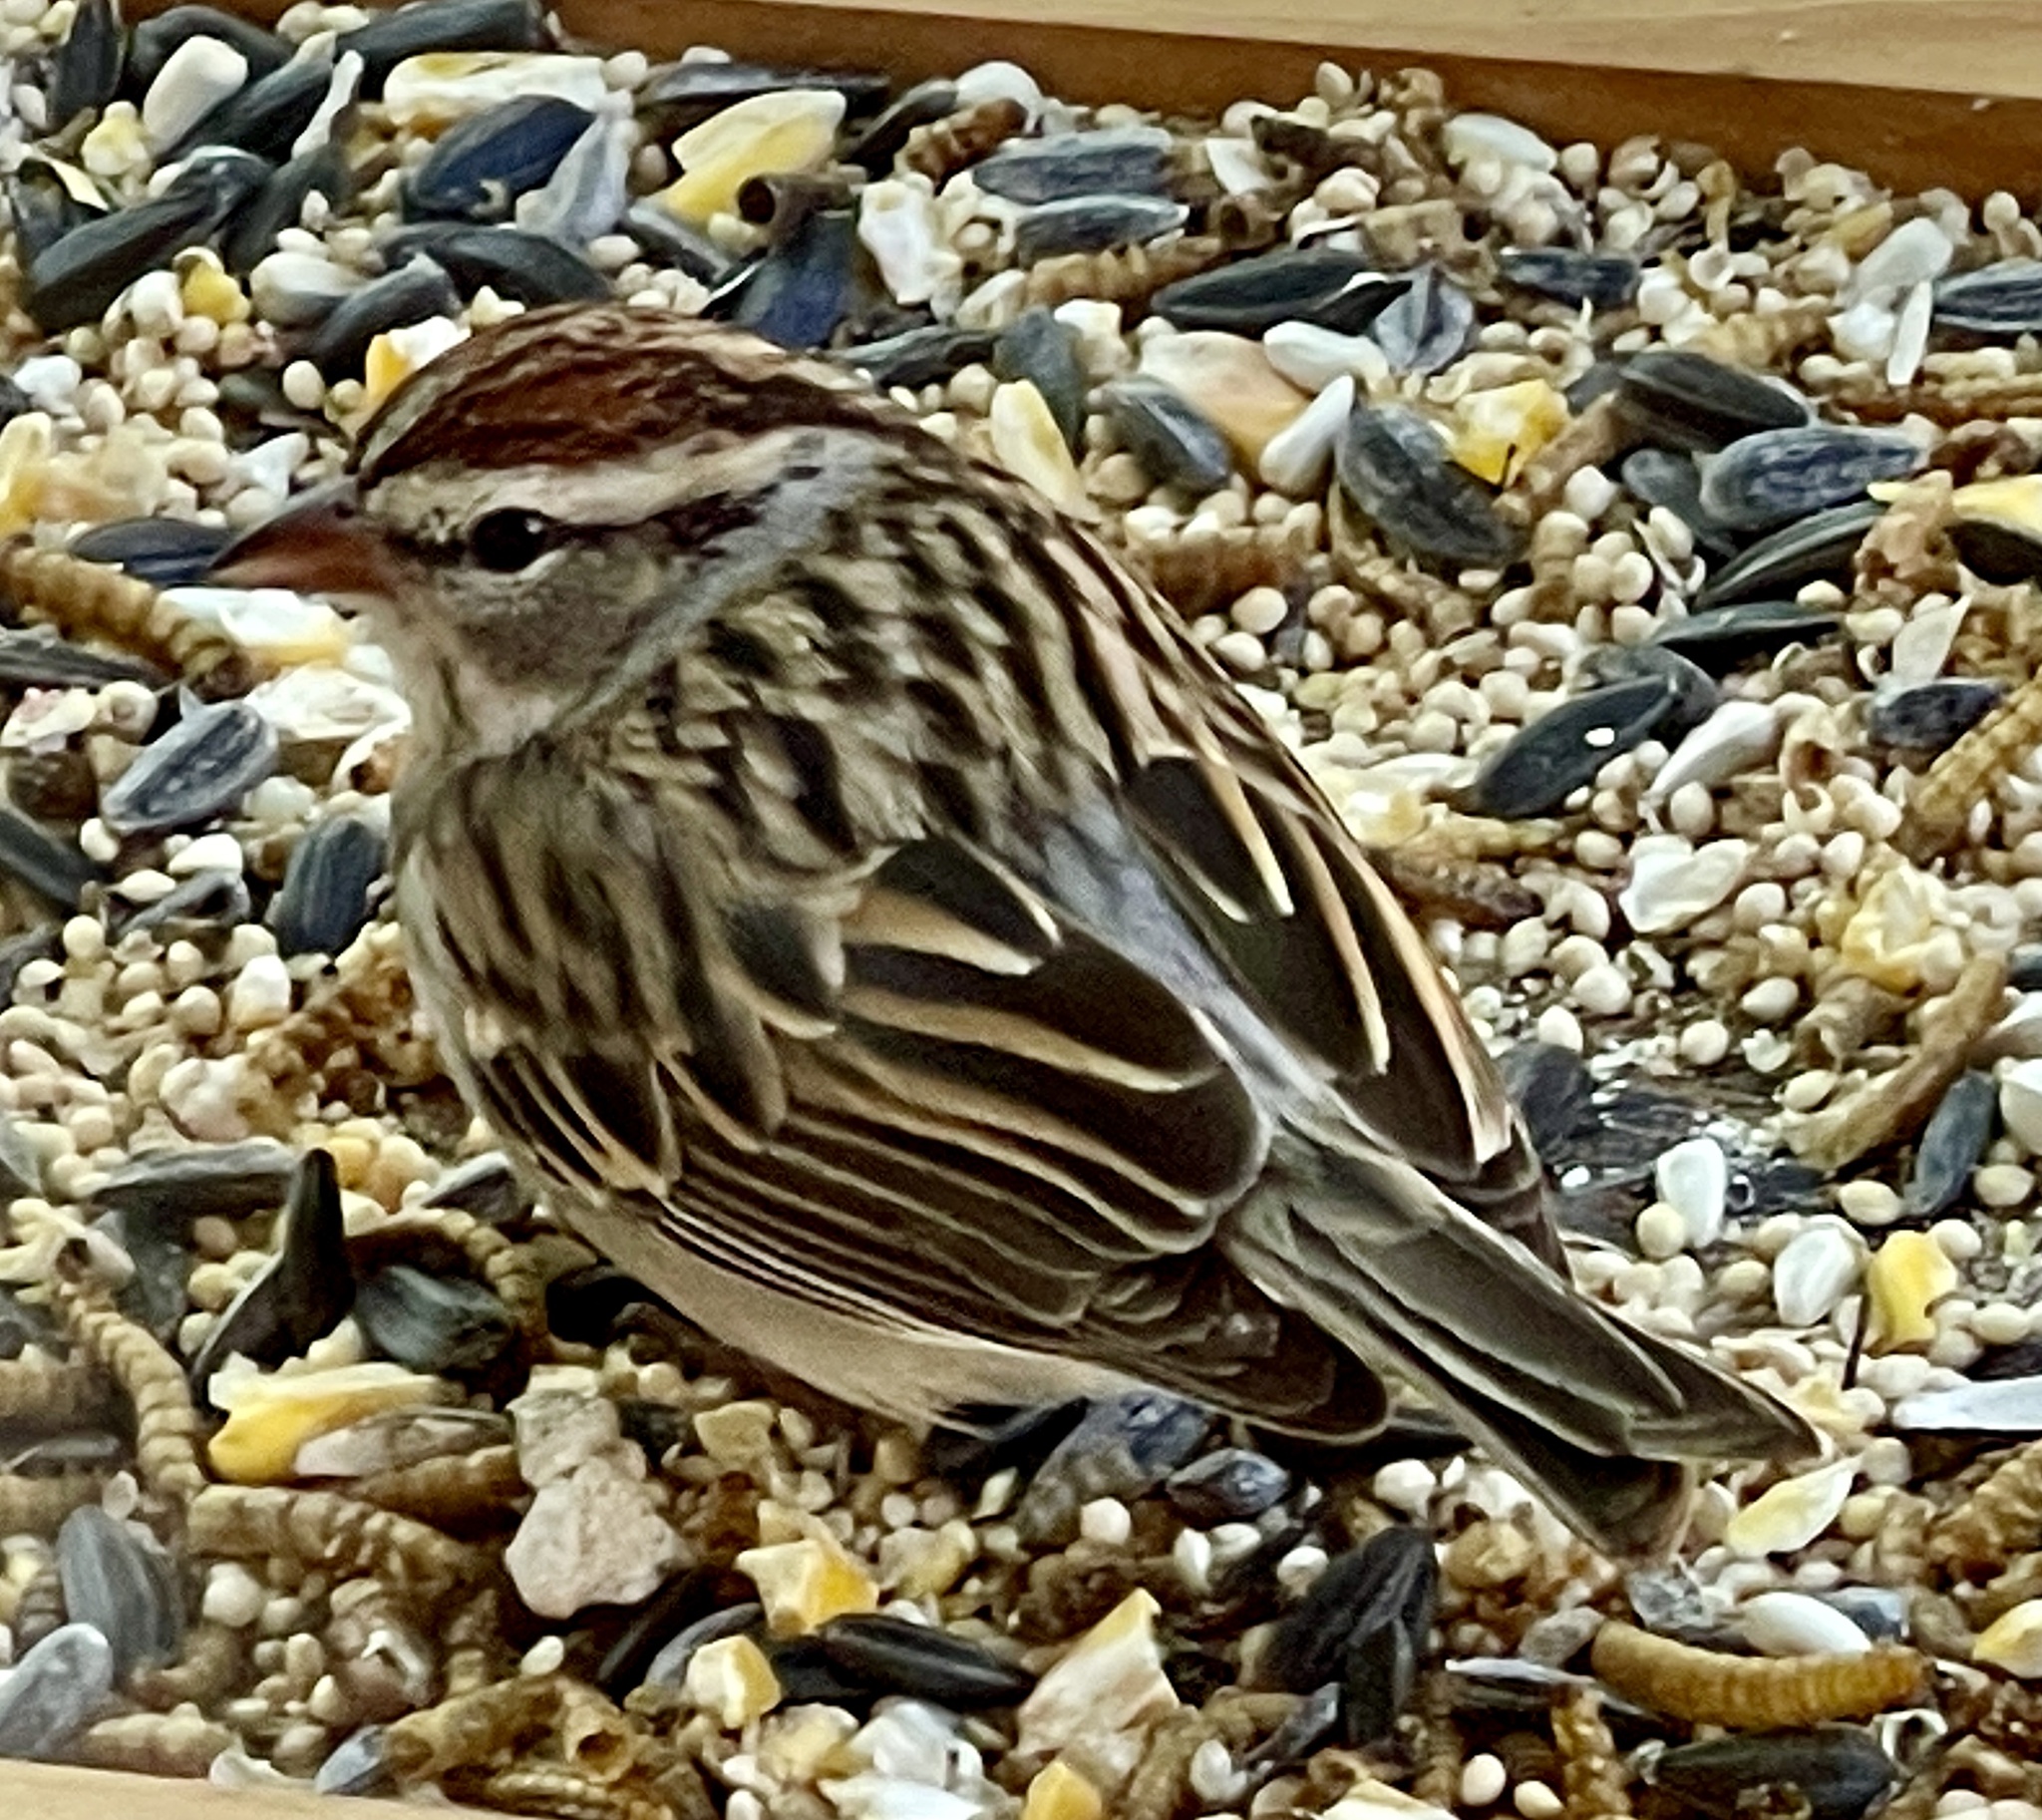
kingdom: Animalia
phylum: Chordata
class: Aves
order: Passeriformes
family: Passerellidae
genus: Spizella
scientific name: Spizella passerina
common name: Chipping sparrow
